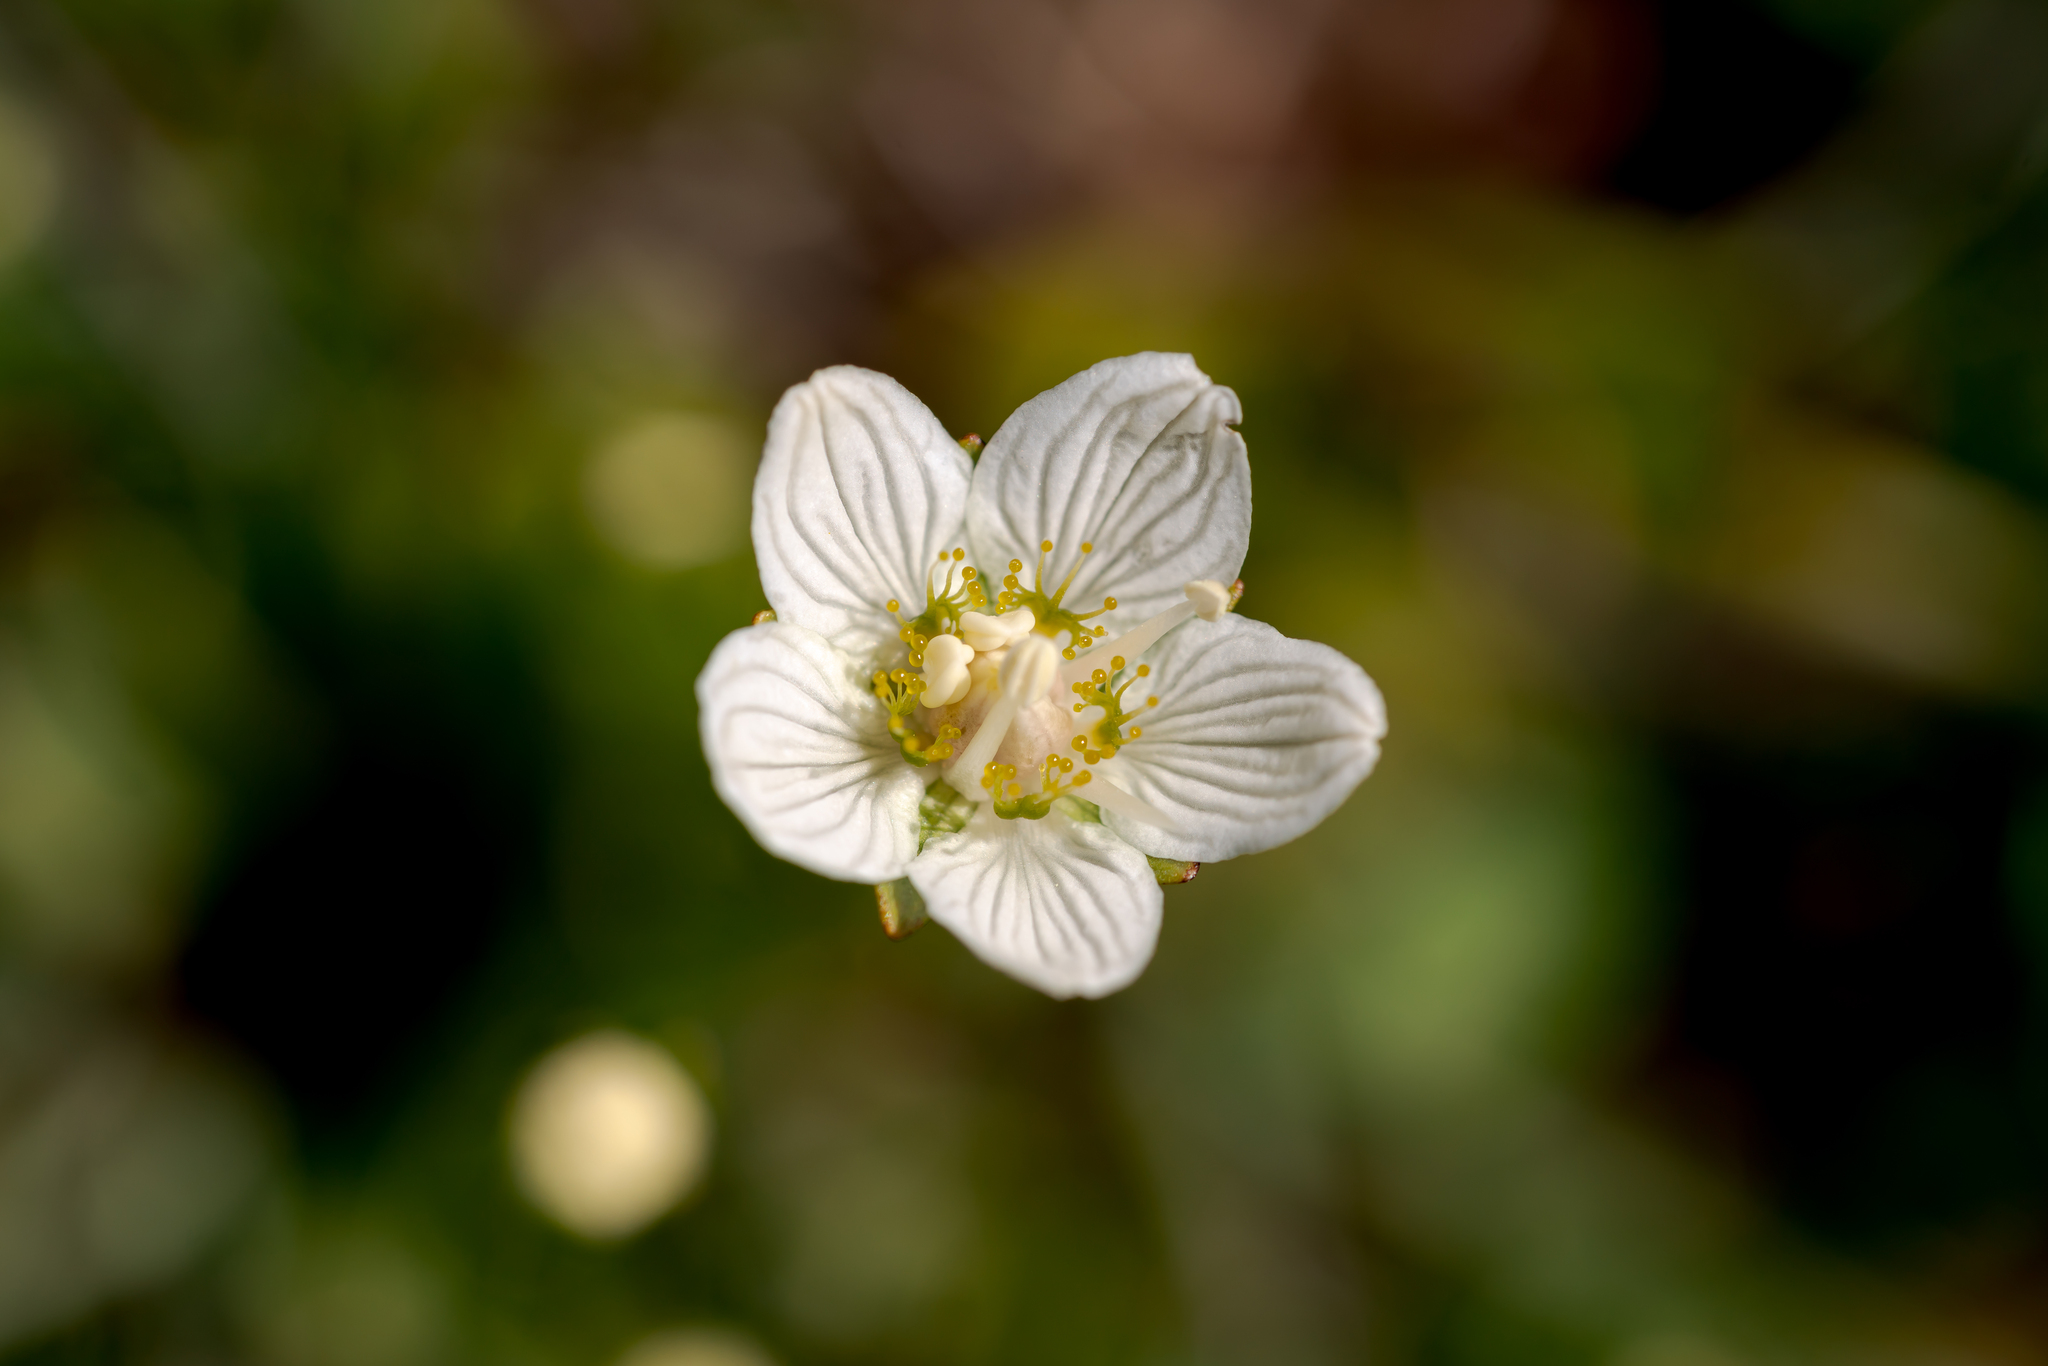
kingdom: Plantae
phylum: Tracheophyta
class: Magnoliopsida
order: Celastrales
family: Parnassiaceae
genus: Parnassia
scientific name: Parnassia palustris
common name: Grass-of-parnassus
